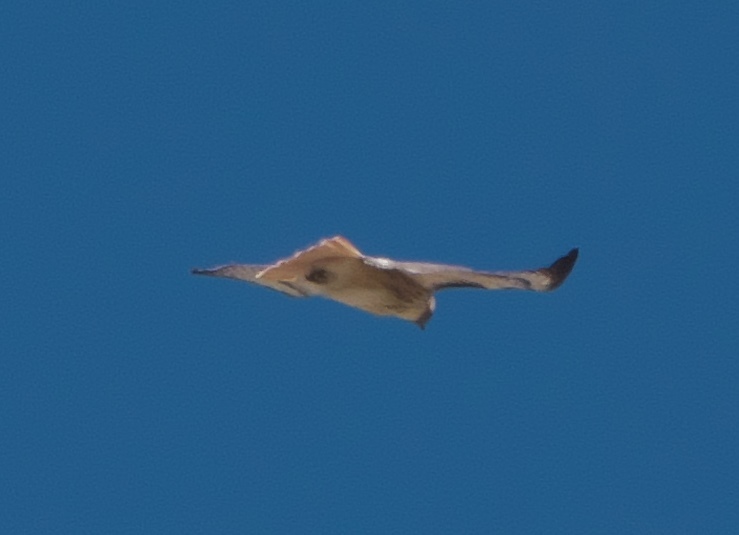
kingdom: Animalia
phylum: Chordata
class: Aves
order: Accipitriformes
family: Accipitridae
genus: Buteo
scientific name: Buteo jamaicensis
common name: Red-tailed hawk
